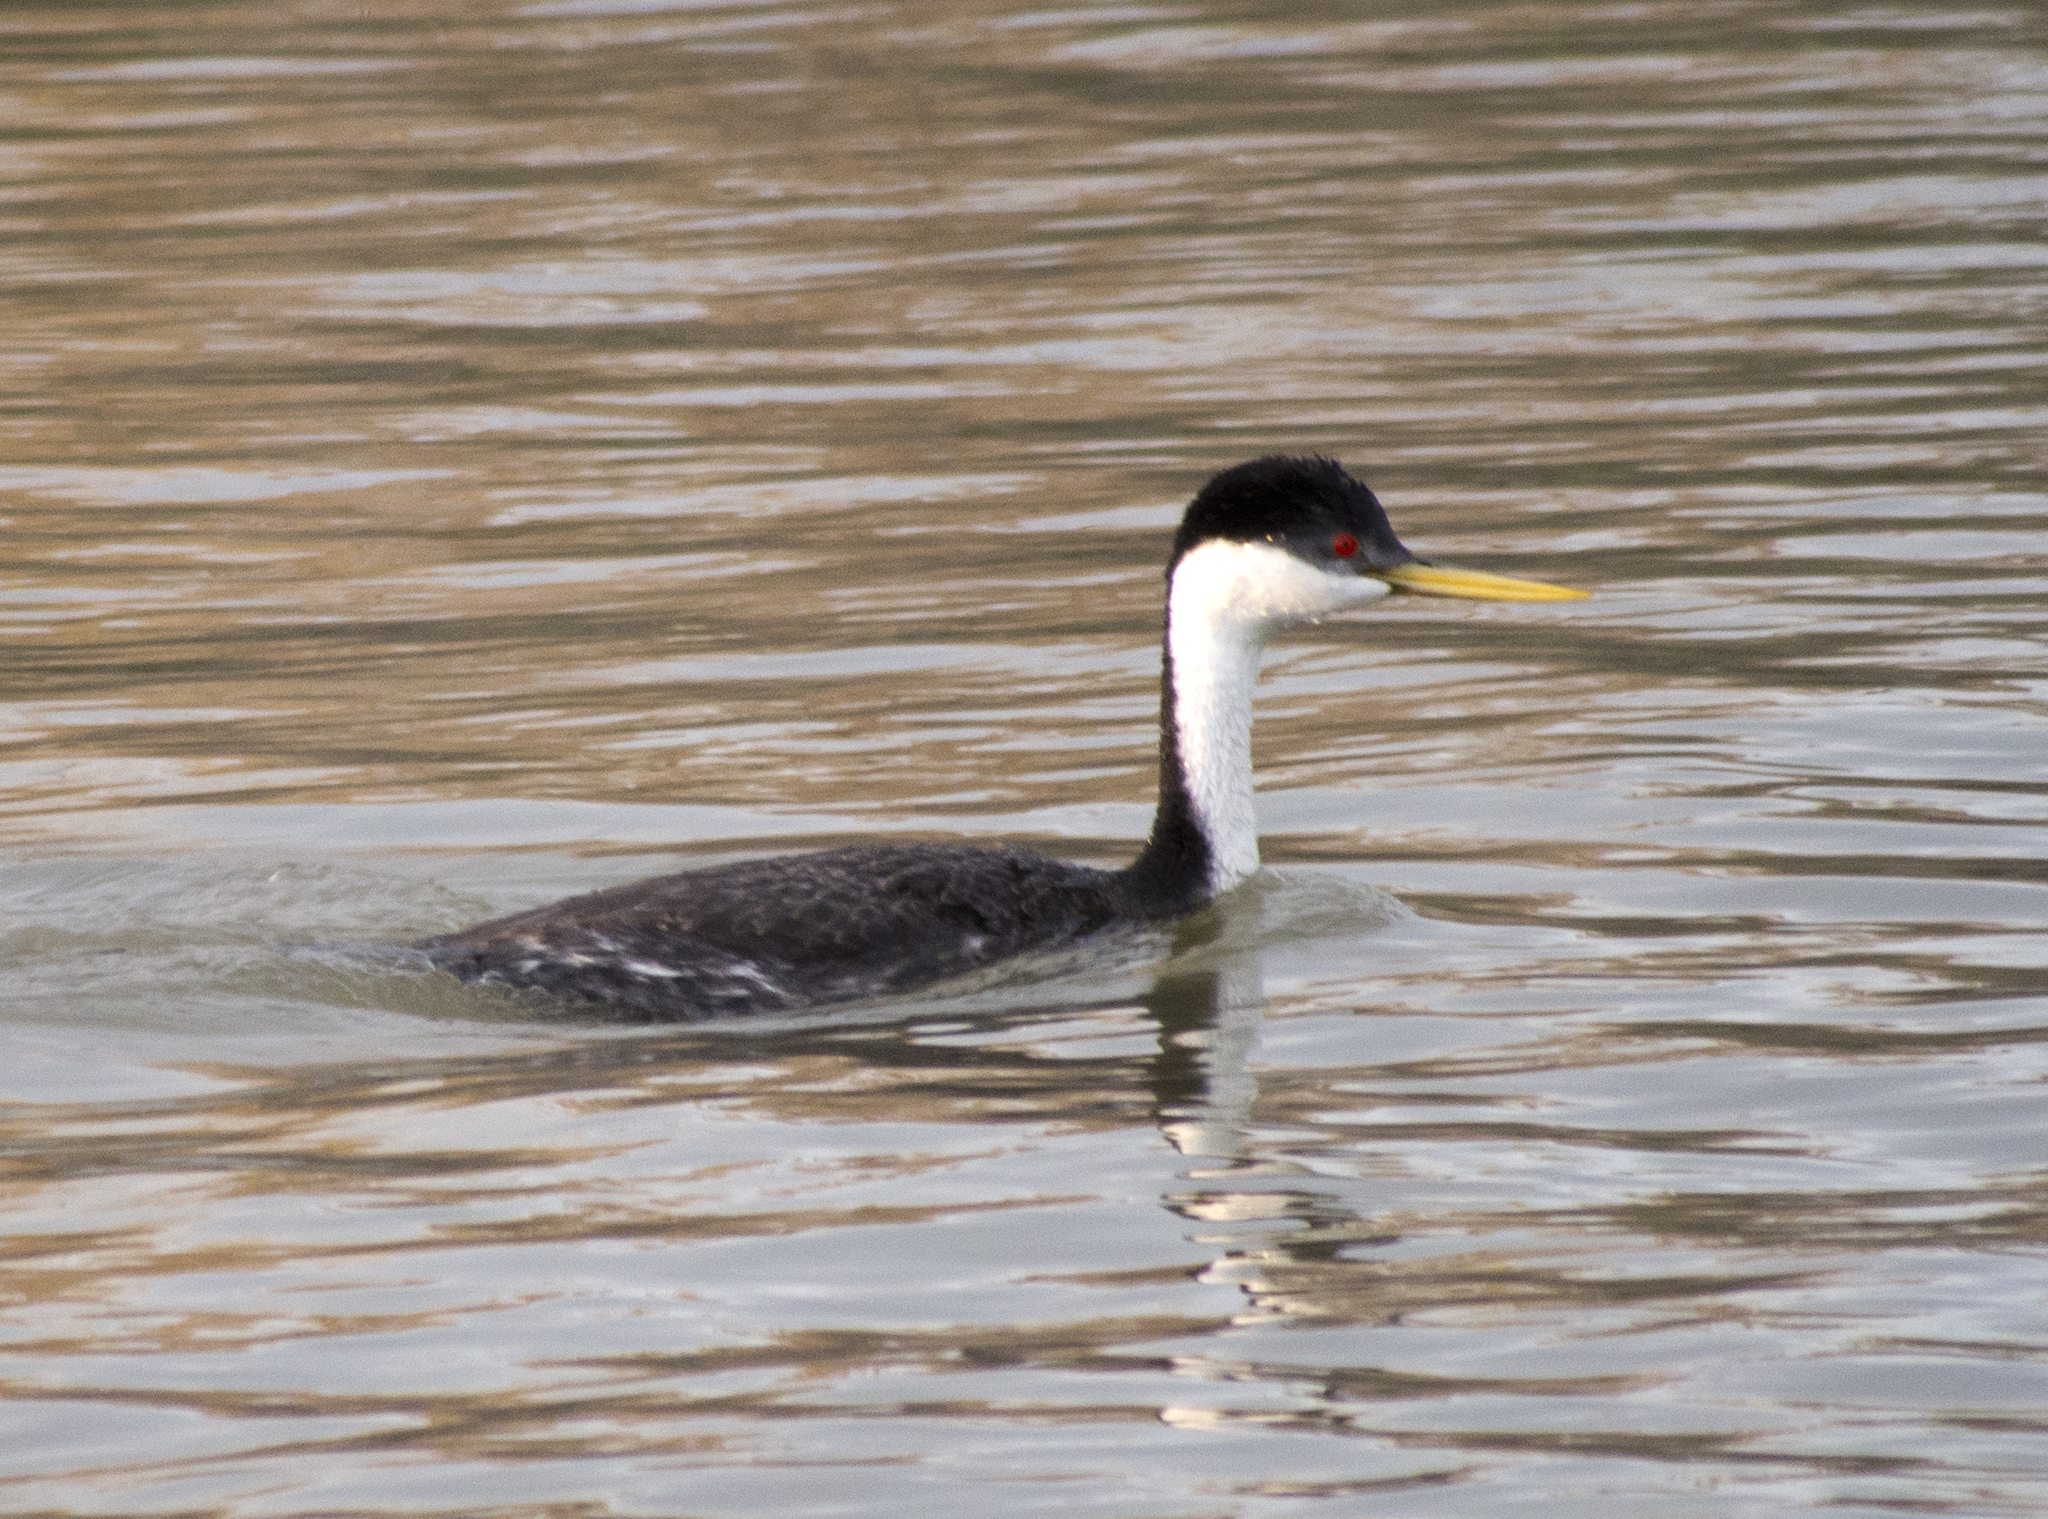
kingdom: Animalia
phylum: Chordata
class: Aves
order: Podicipediformes
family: Podicipedidae
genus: Aechmophorus
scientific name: Aechmophorus occidentalis
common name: Western grebe
